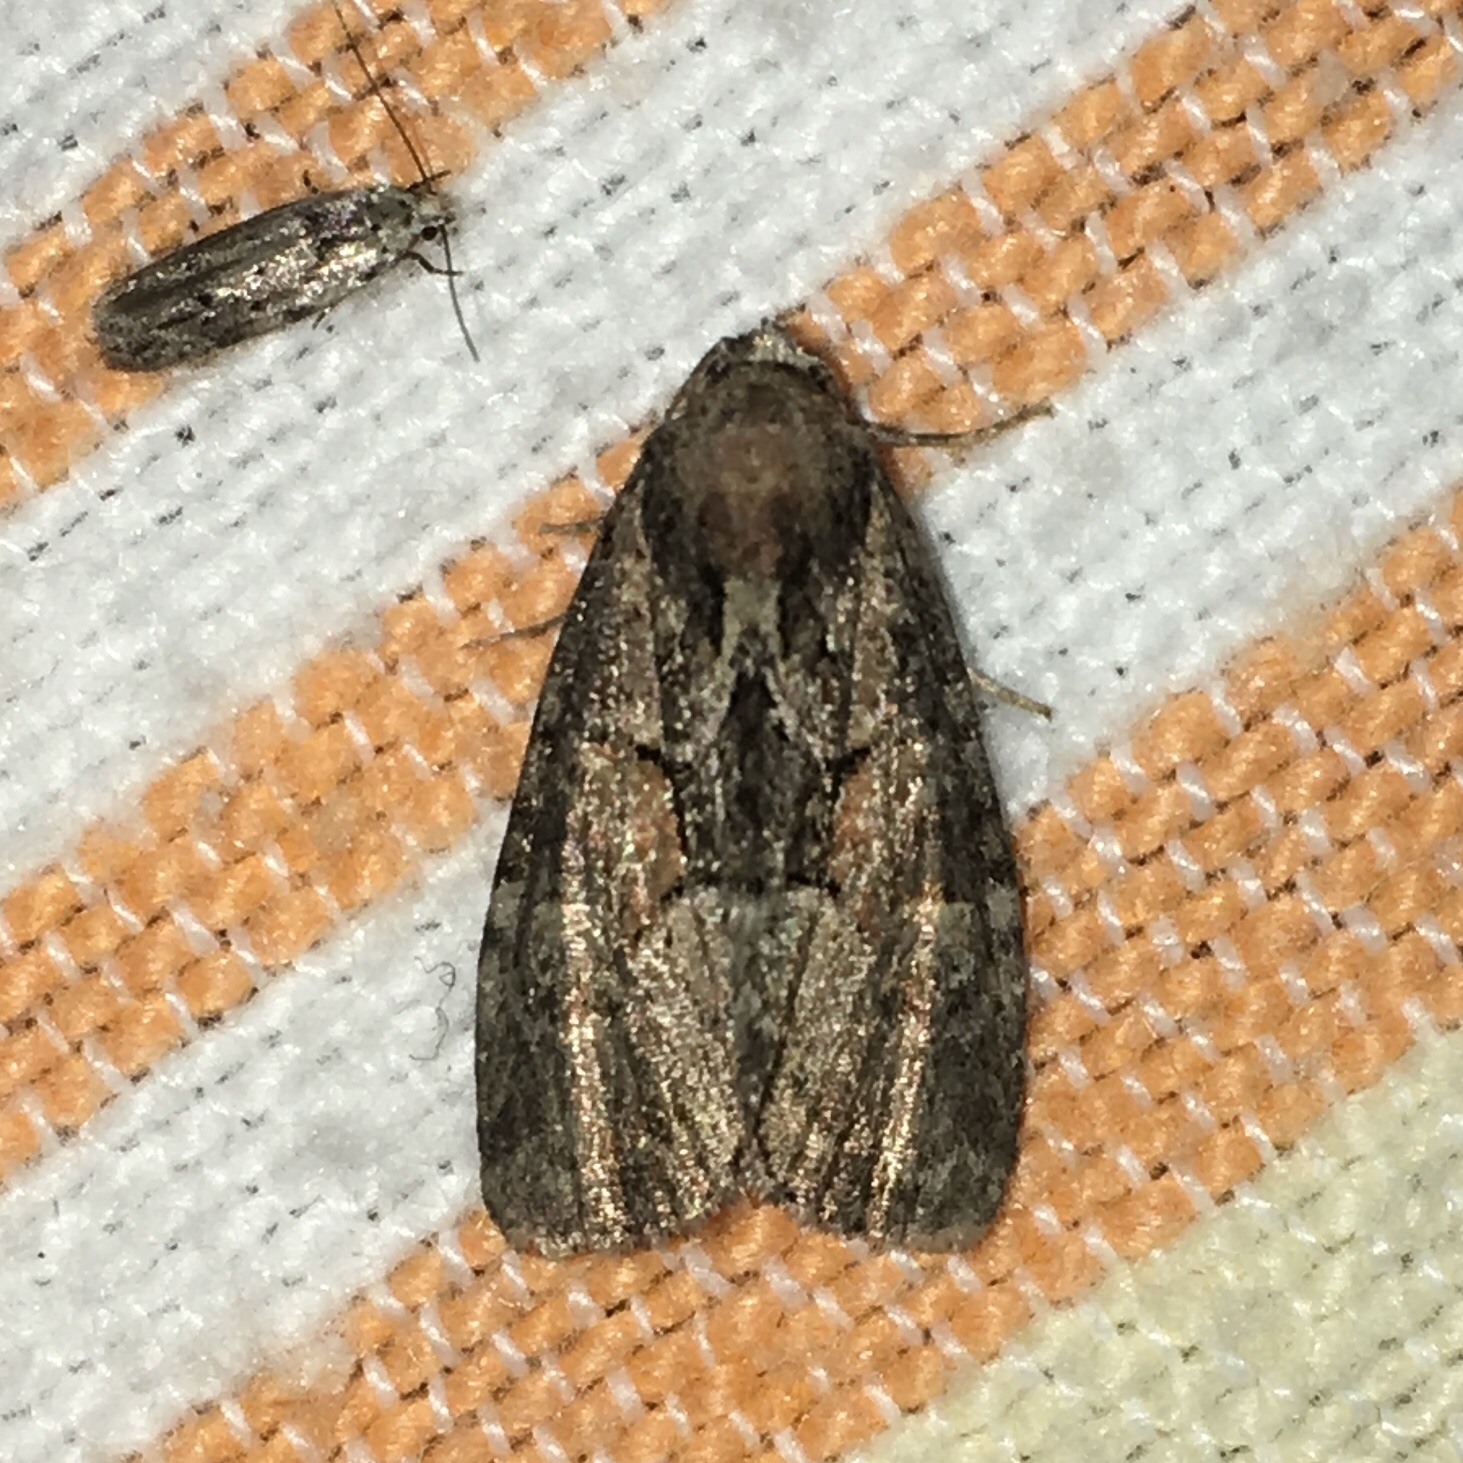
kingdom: Animalia
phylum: Arthropoda
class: Insecta
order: Lepidoptera
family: Noctuidae
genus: Neoligia
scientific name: Neoligia subjuncta
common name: Connected brocade
